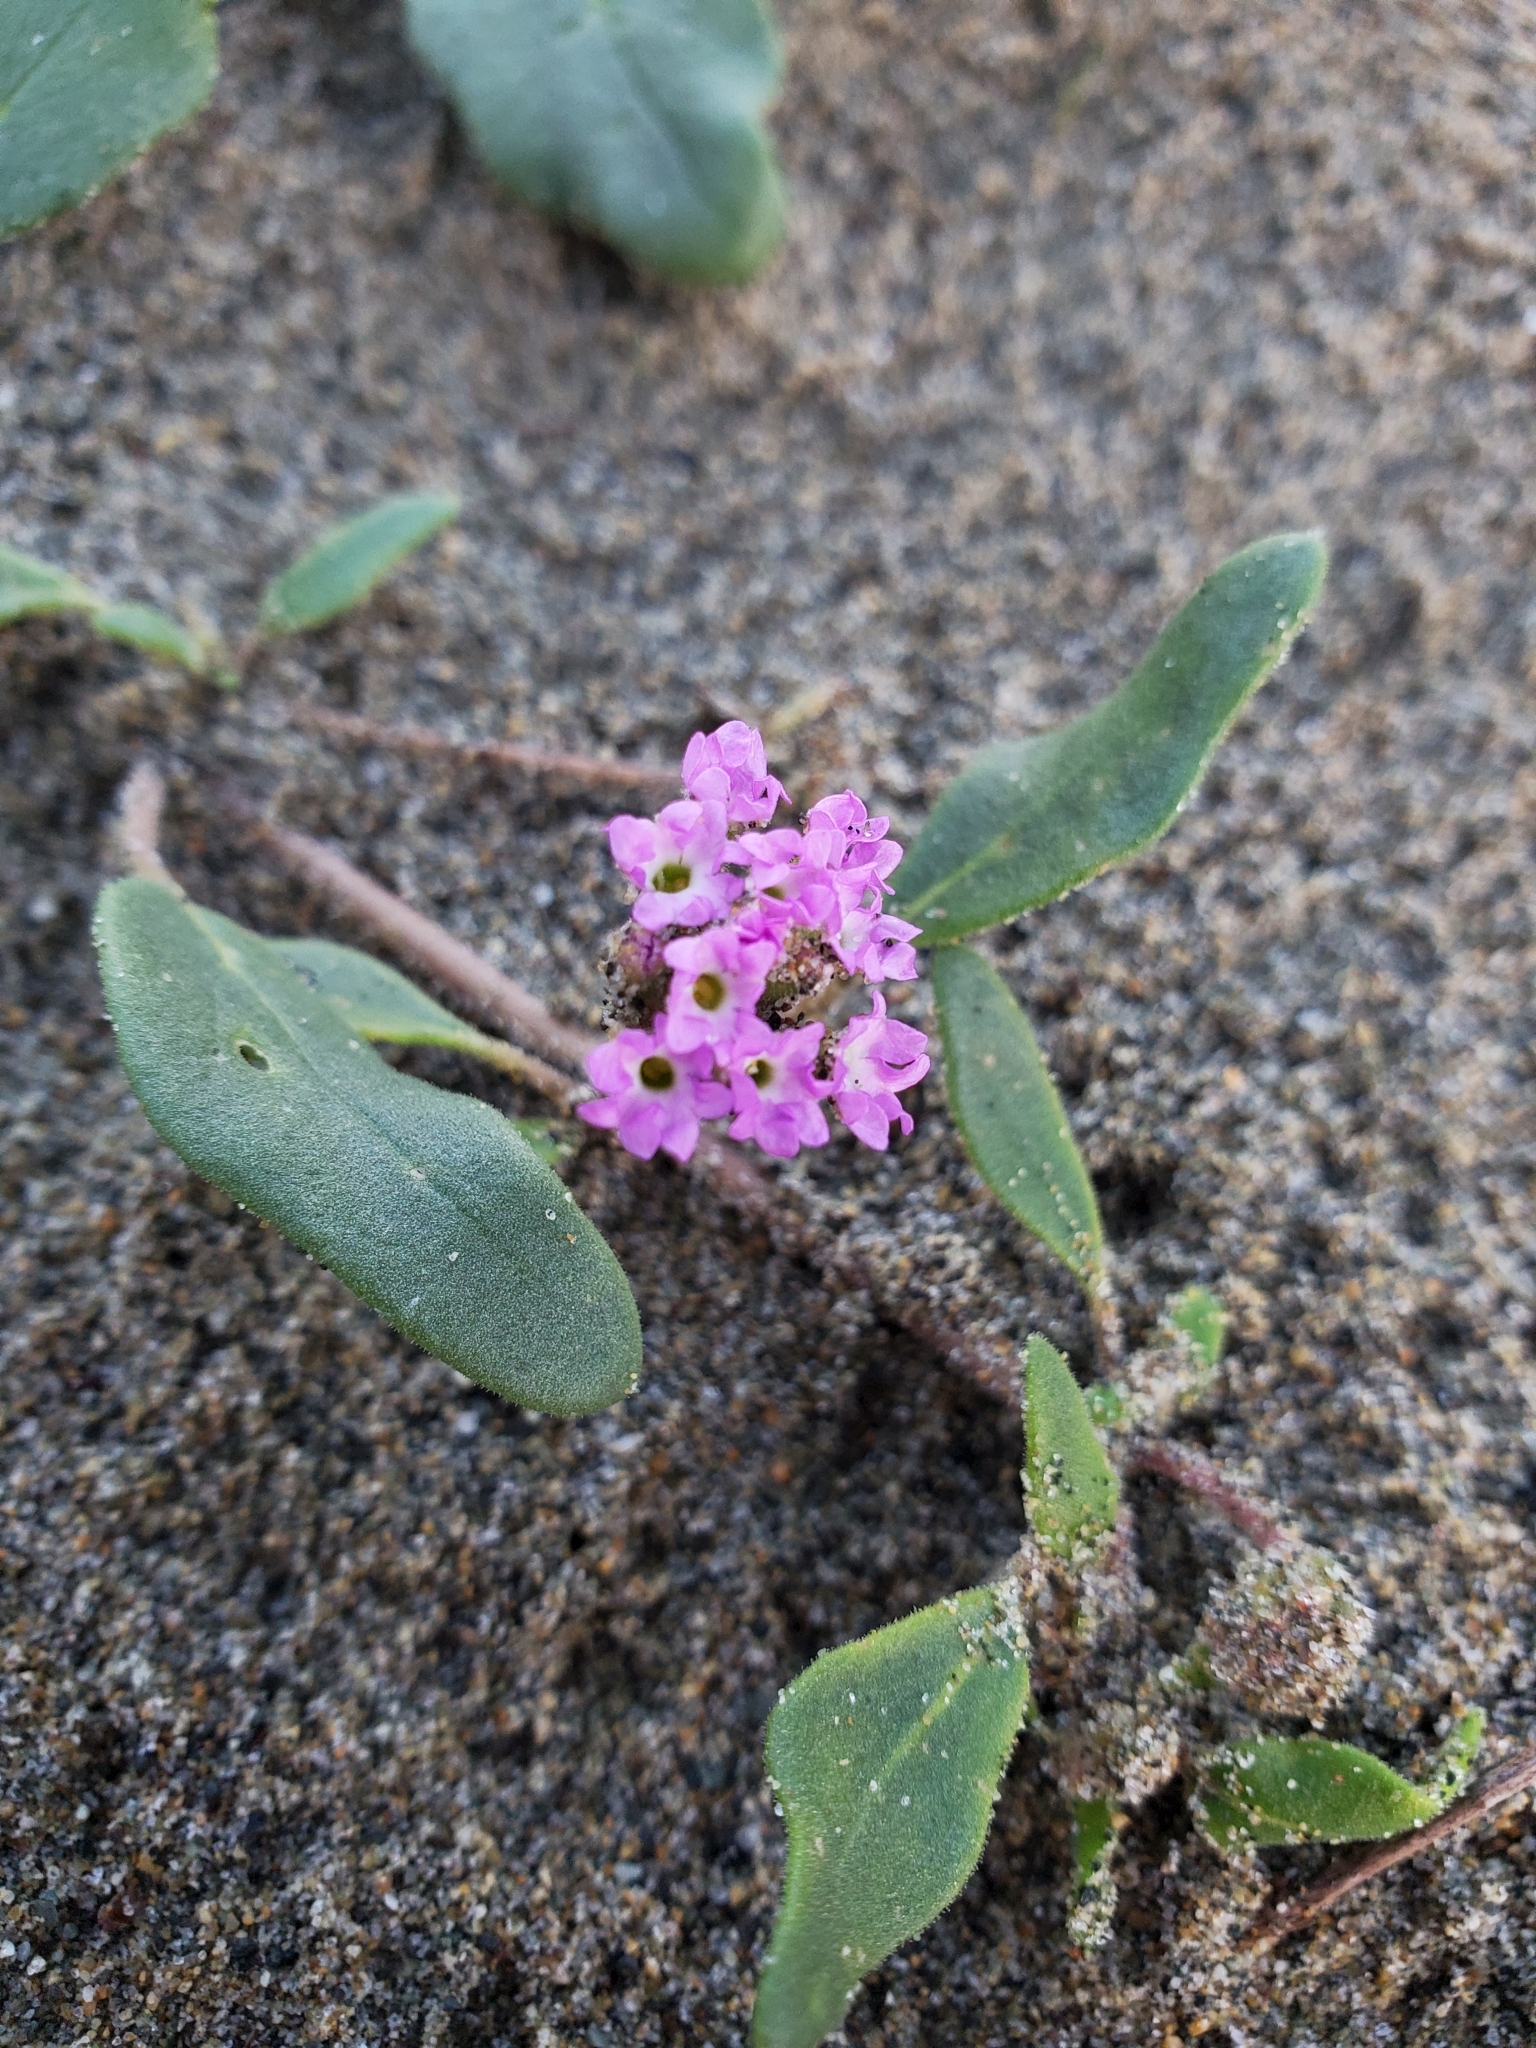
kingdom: Plantae
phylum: Tracheophyta
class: Magnoliopsida
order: Caryophyllales
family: Nyctaginaceae
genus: Abronia
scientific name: Abronia umbellata
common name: Sand-verbena
